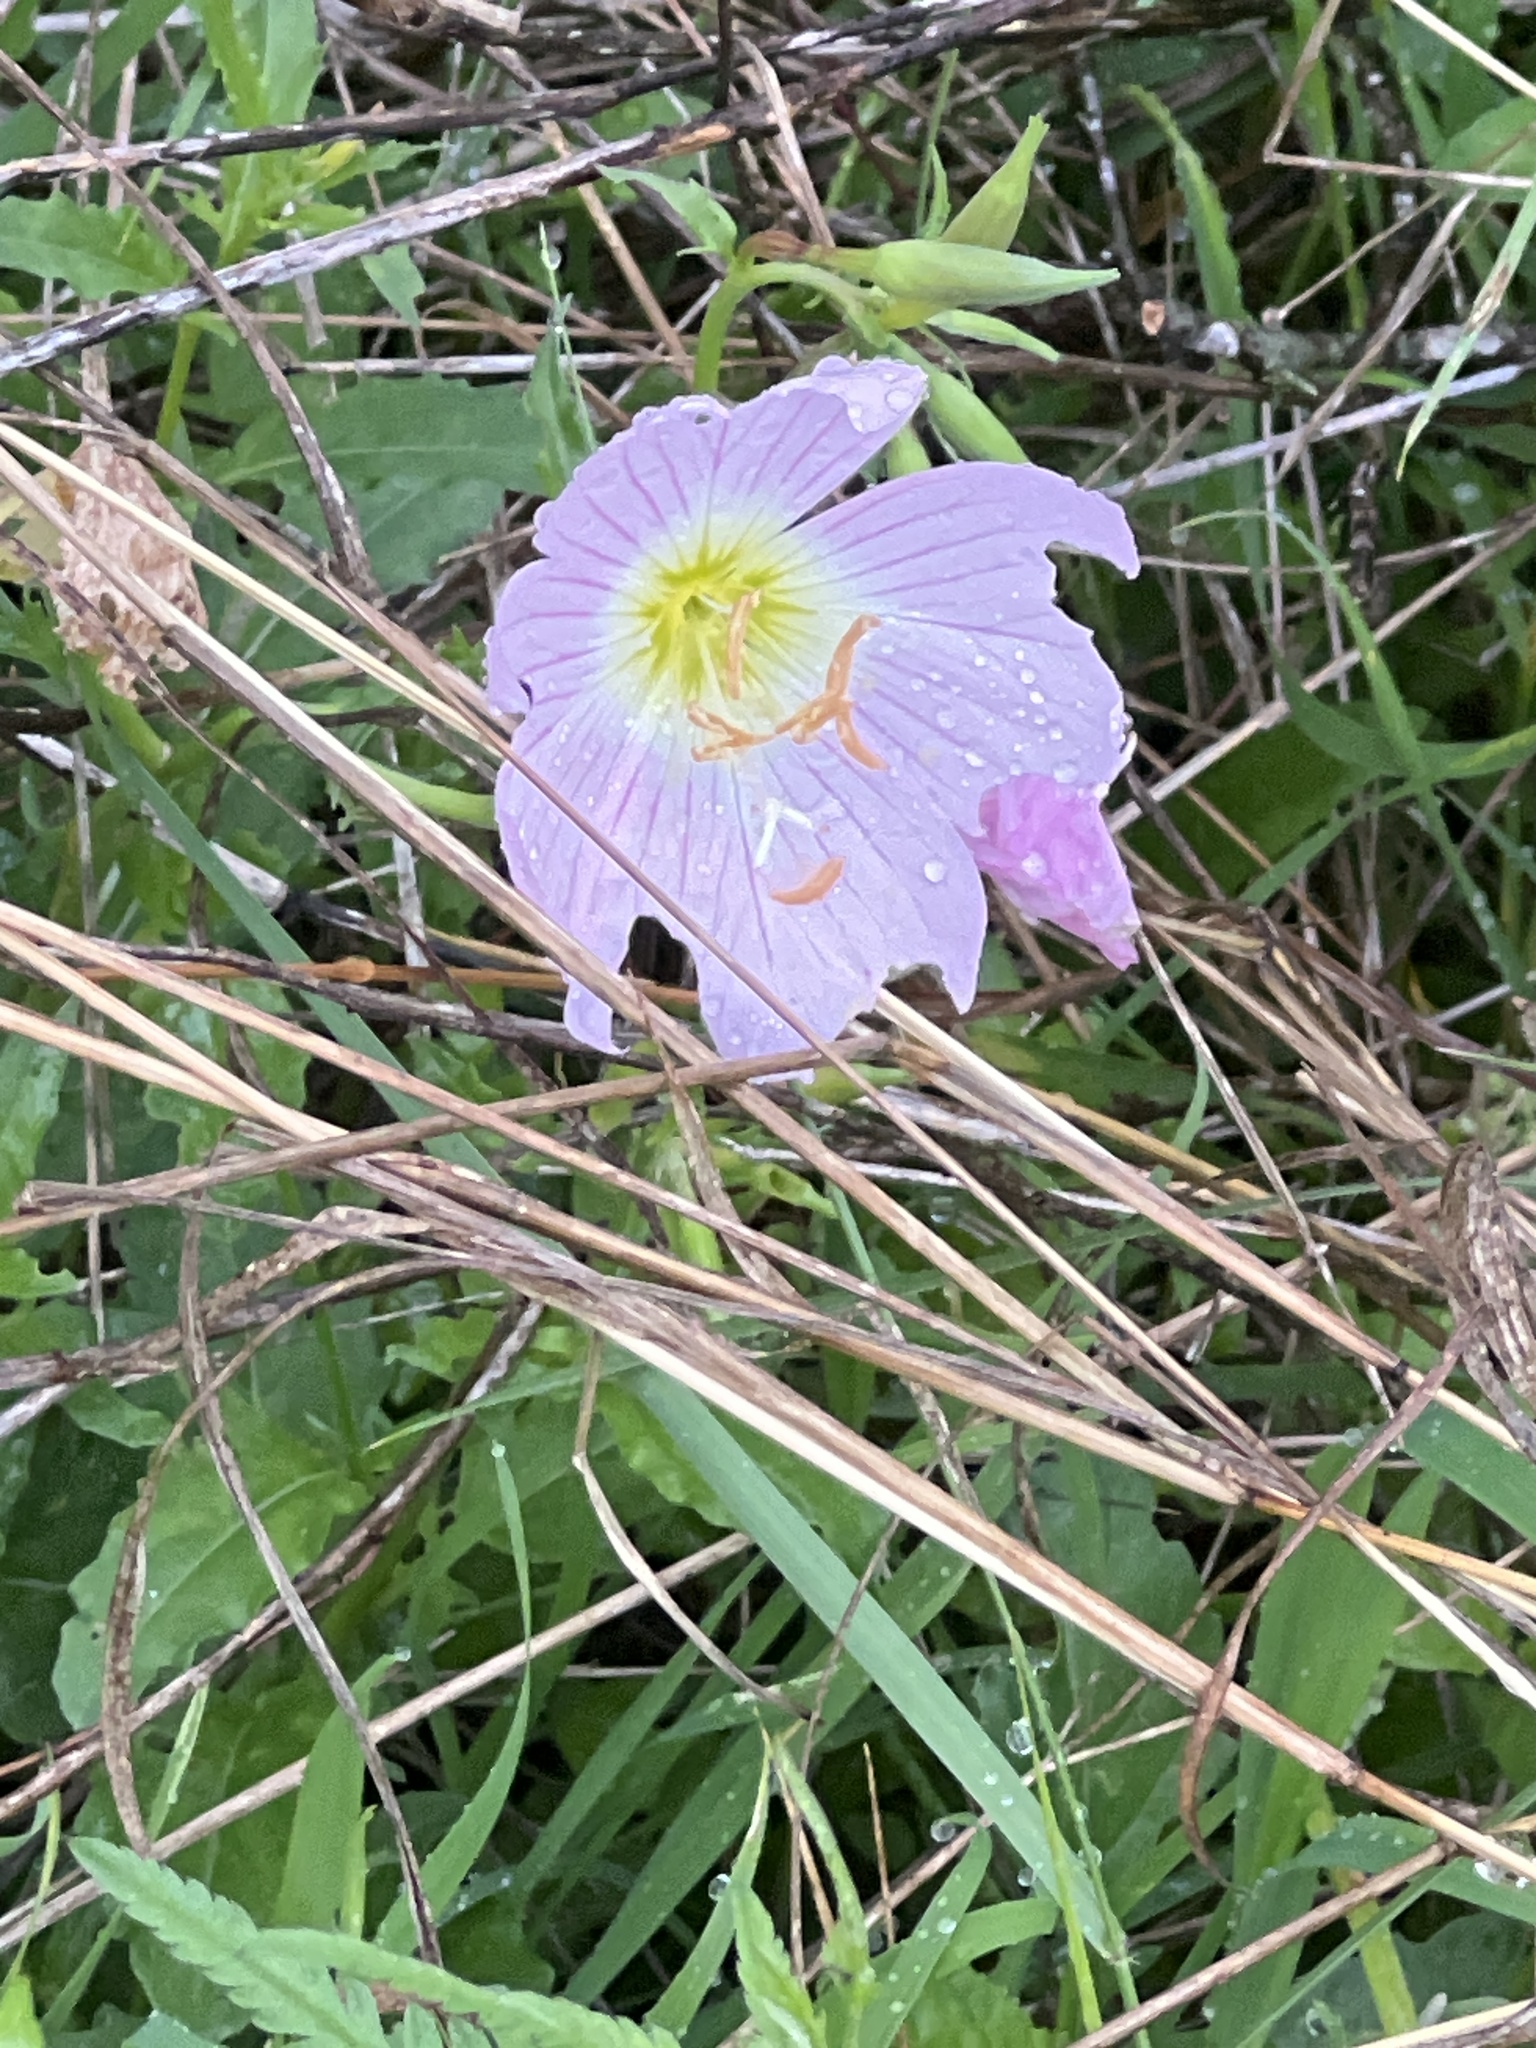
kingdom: Plantae
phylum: Tracheophyta
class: Magnoliopsida
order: Myrtales
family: Onagraceae
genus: Oenothera
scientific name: Oenothera speciosa
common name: White evening-primrose
